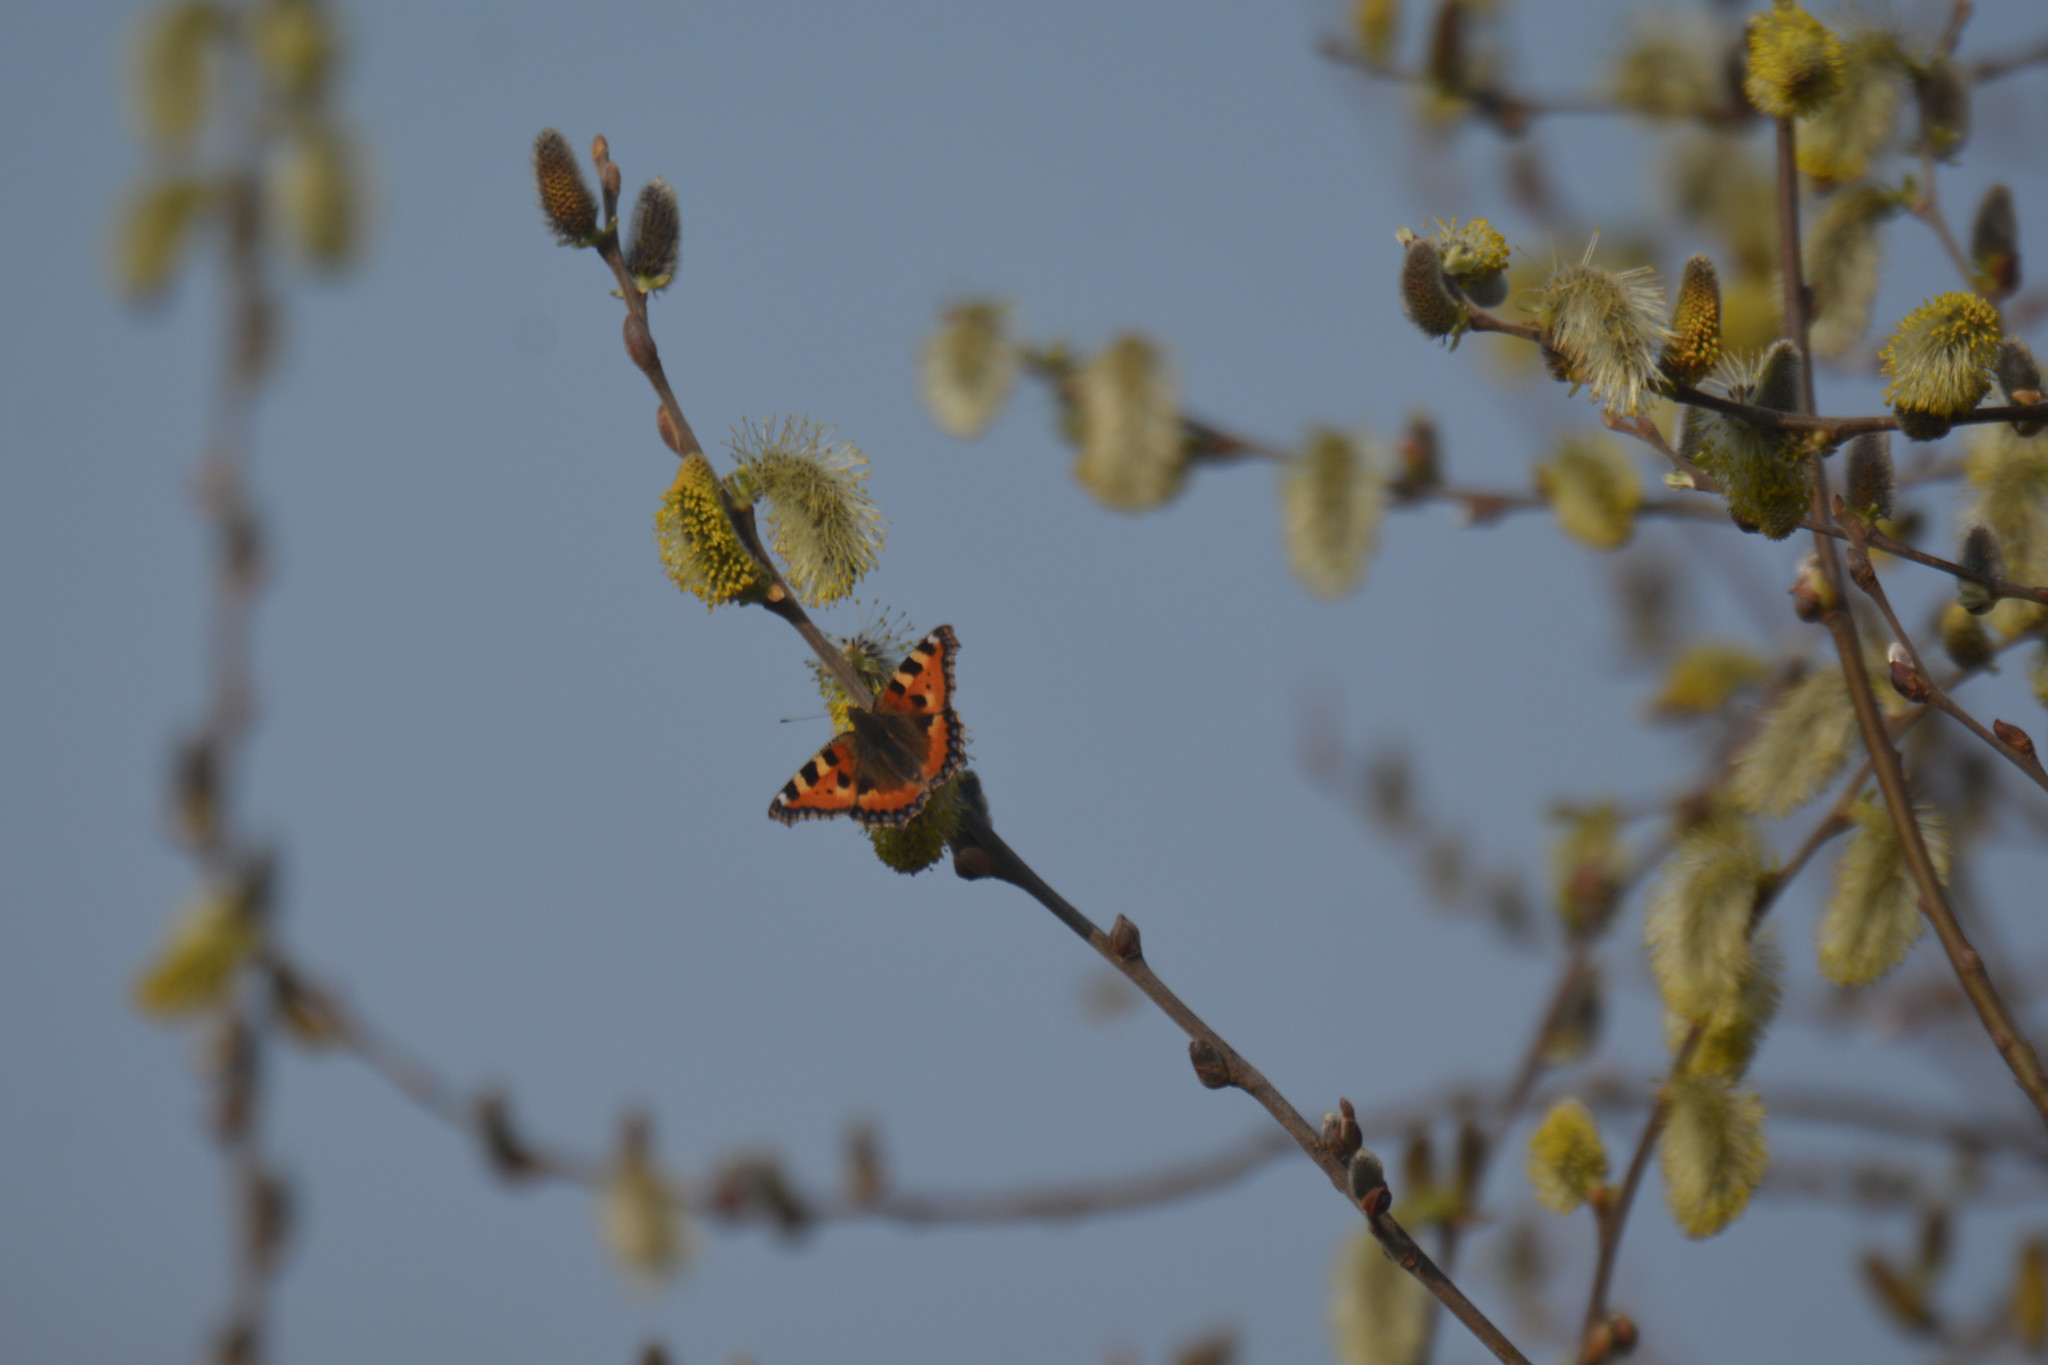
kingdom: Animalia
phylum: Arthropoda
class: Insecta
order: Lepidoptera
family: Nymphalidae
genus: Aglais
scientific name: Aglais urticae
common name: Small tortoiseshell
